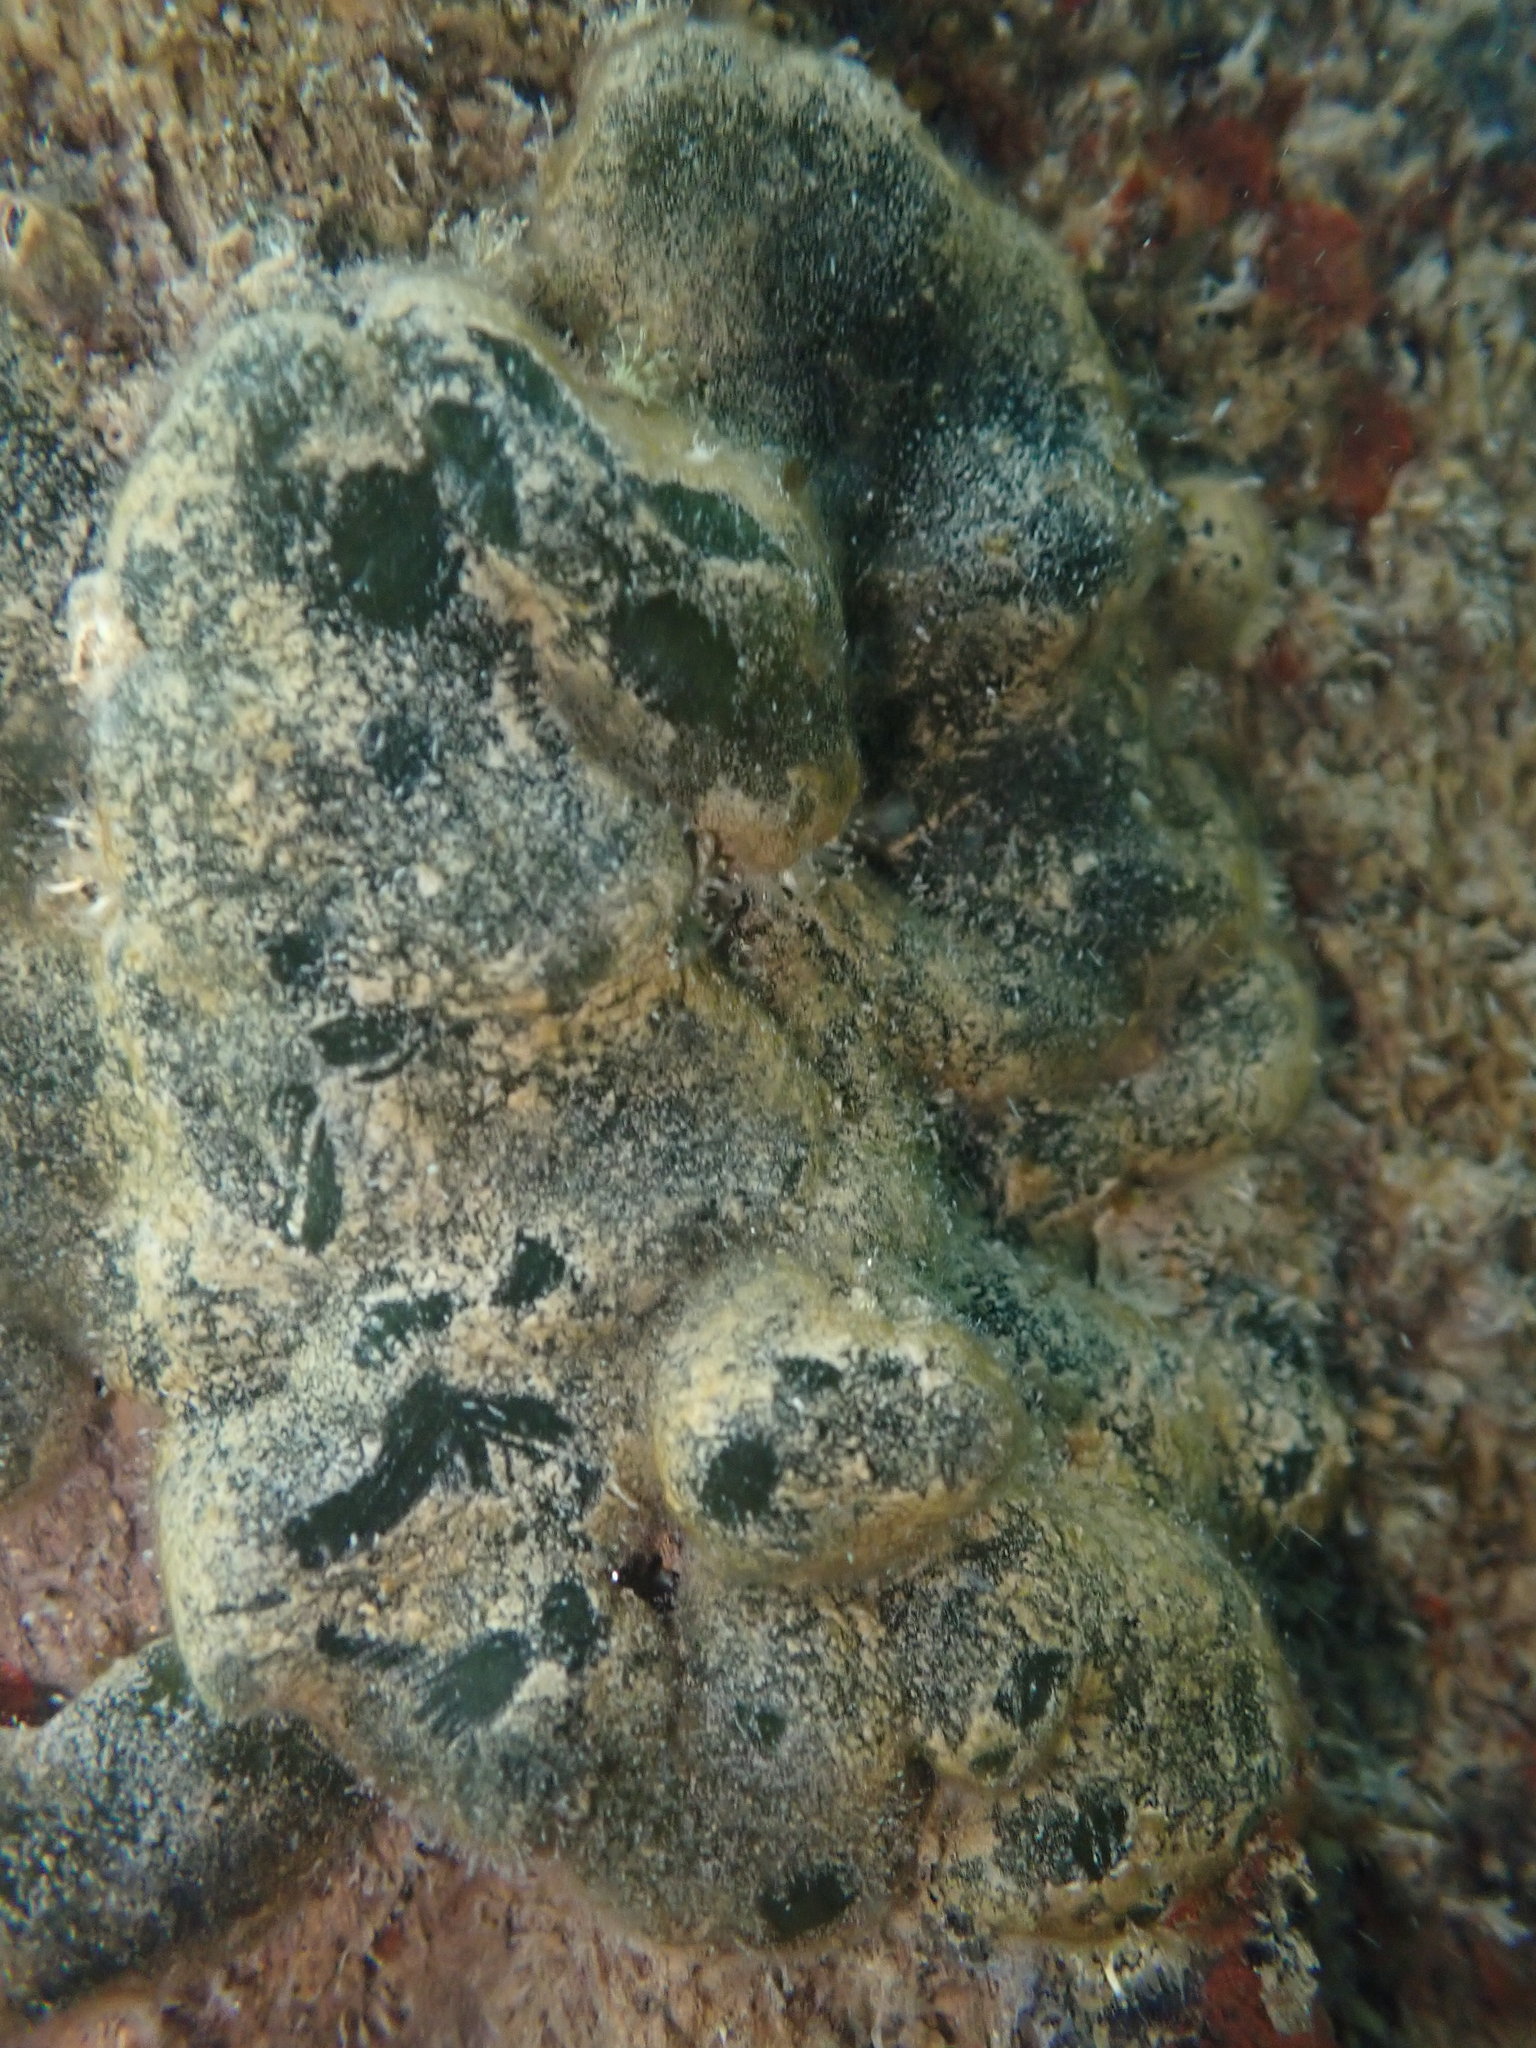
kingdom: Plantae
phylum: Chlorophyta
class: Ulvophyceae
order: Bryopsidales
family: Codiaceae
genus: Codium
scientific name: Codium convolutum
